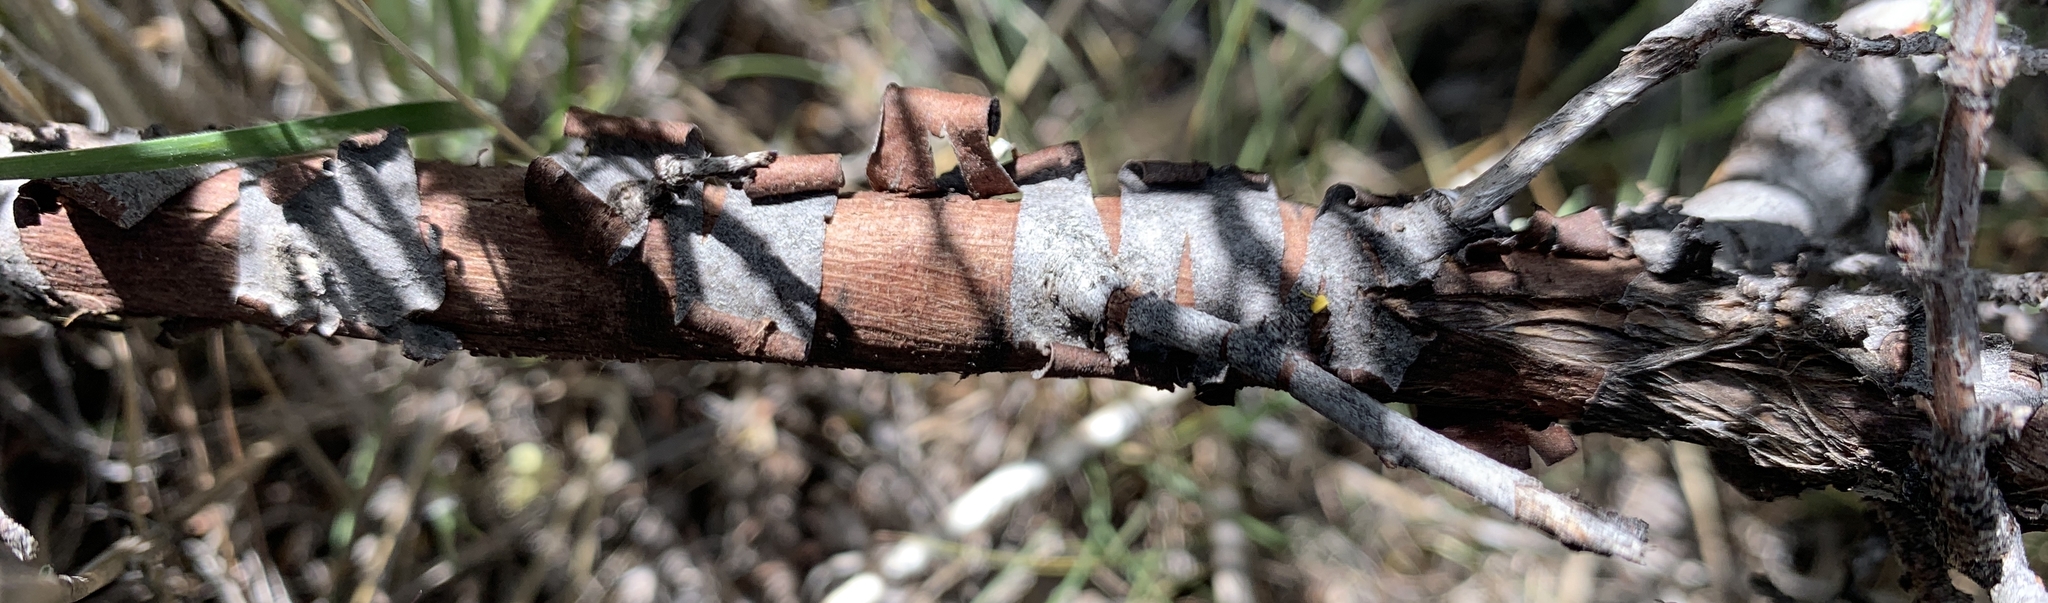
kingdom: Plantae
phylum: Tracheophyta
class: Magnoliopsida
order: Rosales
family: Rosaceae
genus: Purshia
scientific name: Purshia tridentata
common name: Antelope bitterbrush
